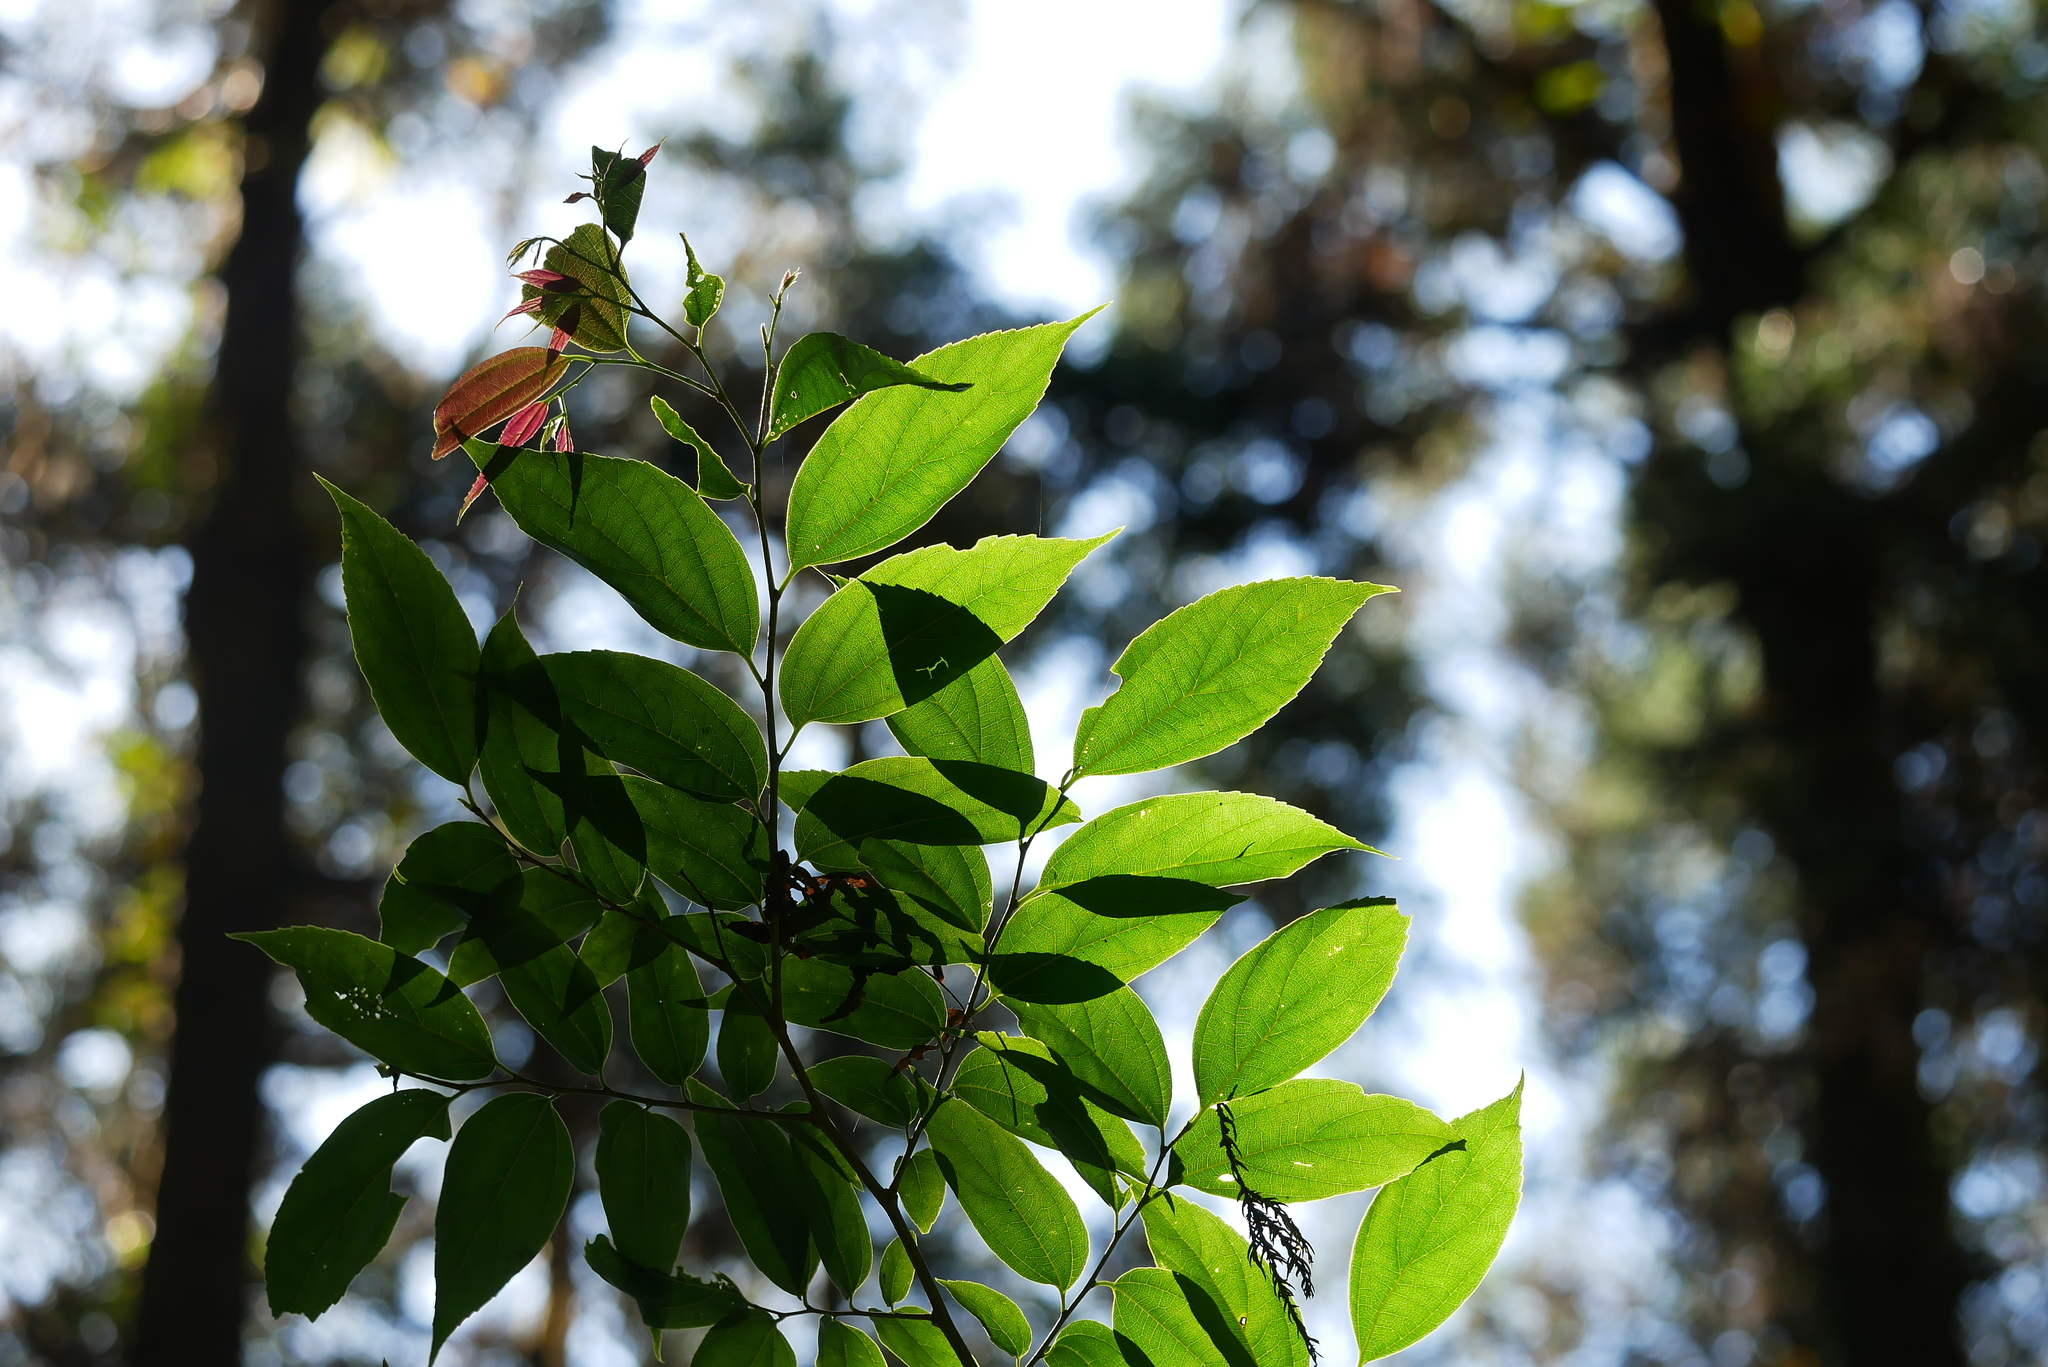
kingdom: Plantae
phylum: Tracheophyta
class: Magnoliopsida
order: Rosales
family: Cannabaceae
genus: Celtis
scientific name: Celtis sinensis
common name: Chinese hackberry
